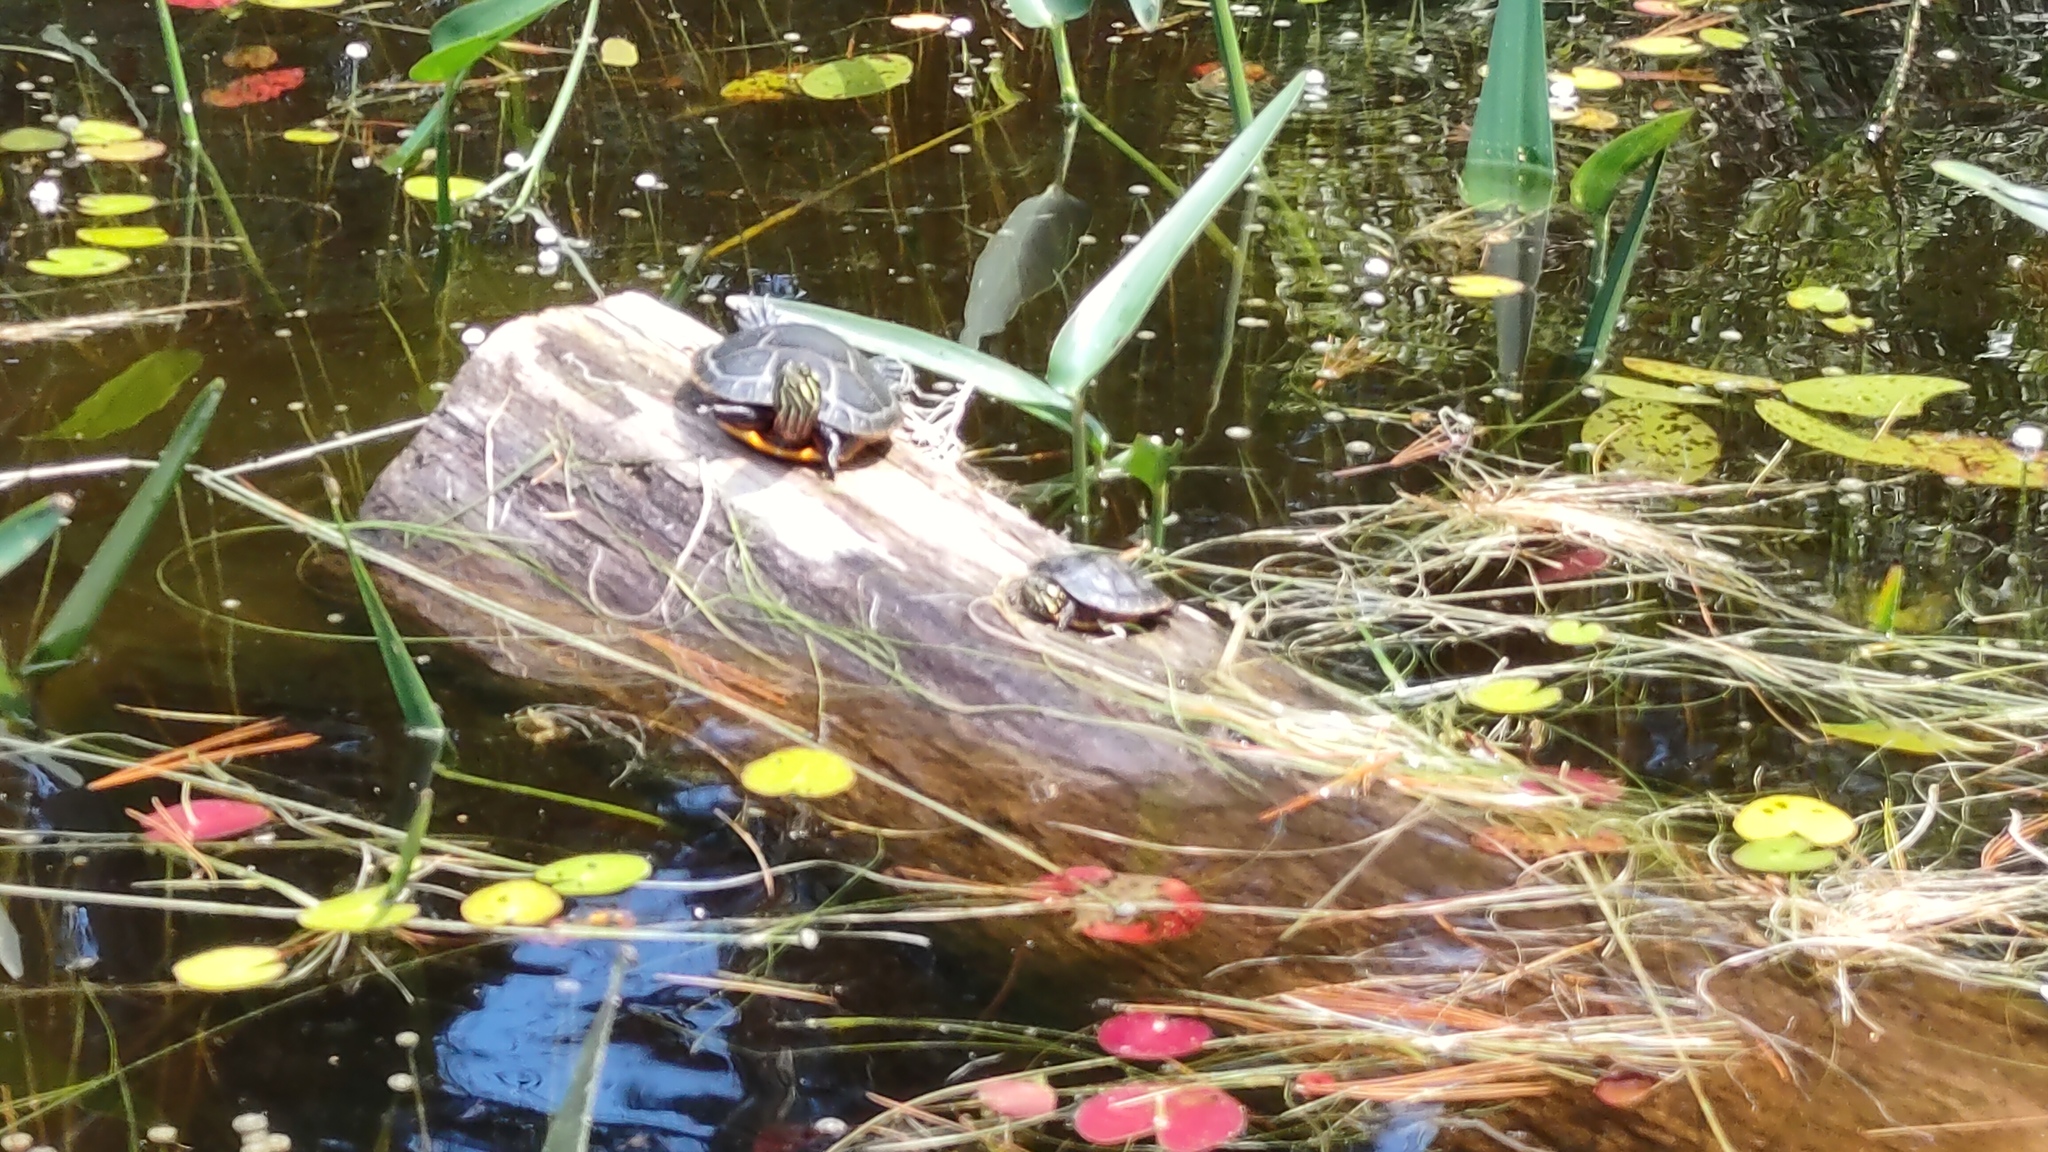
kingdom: Animalia
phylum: Chordata
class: Testudines
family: Emydidae
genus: Chrysemys
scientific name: Chrysemys picta
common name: Painted turtle
